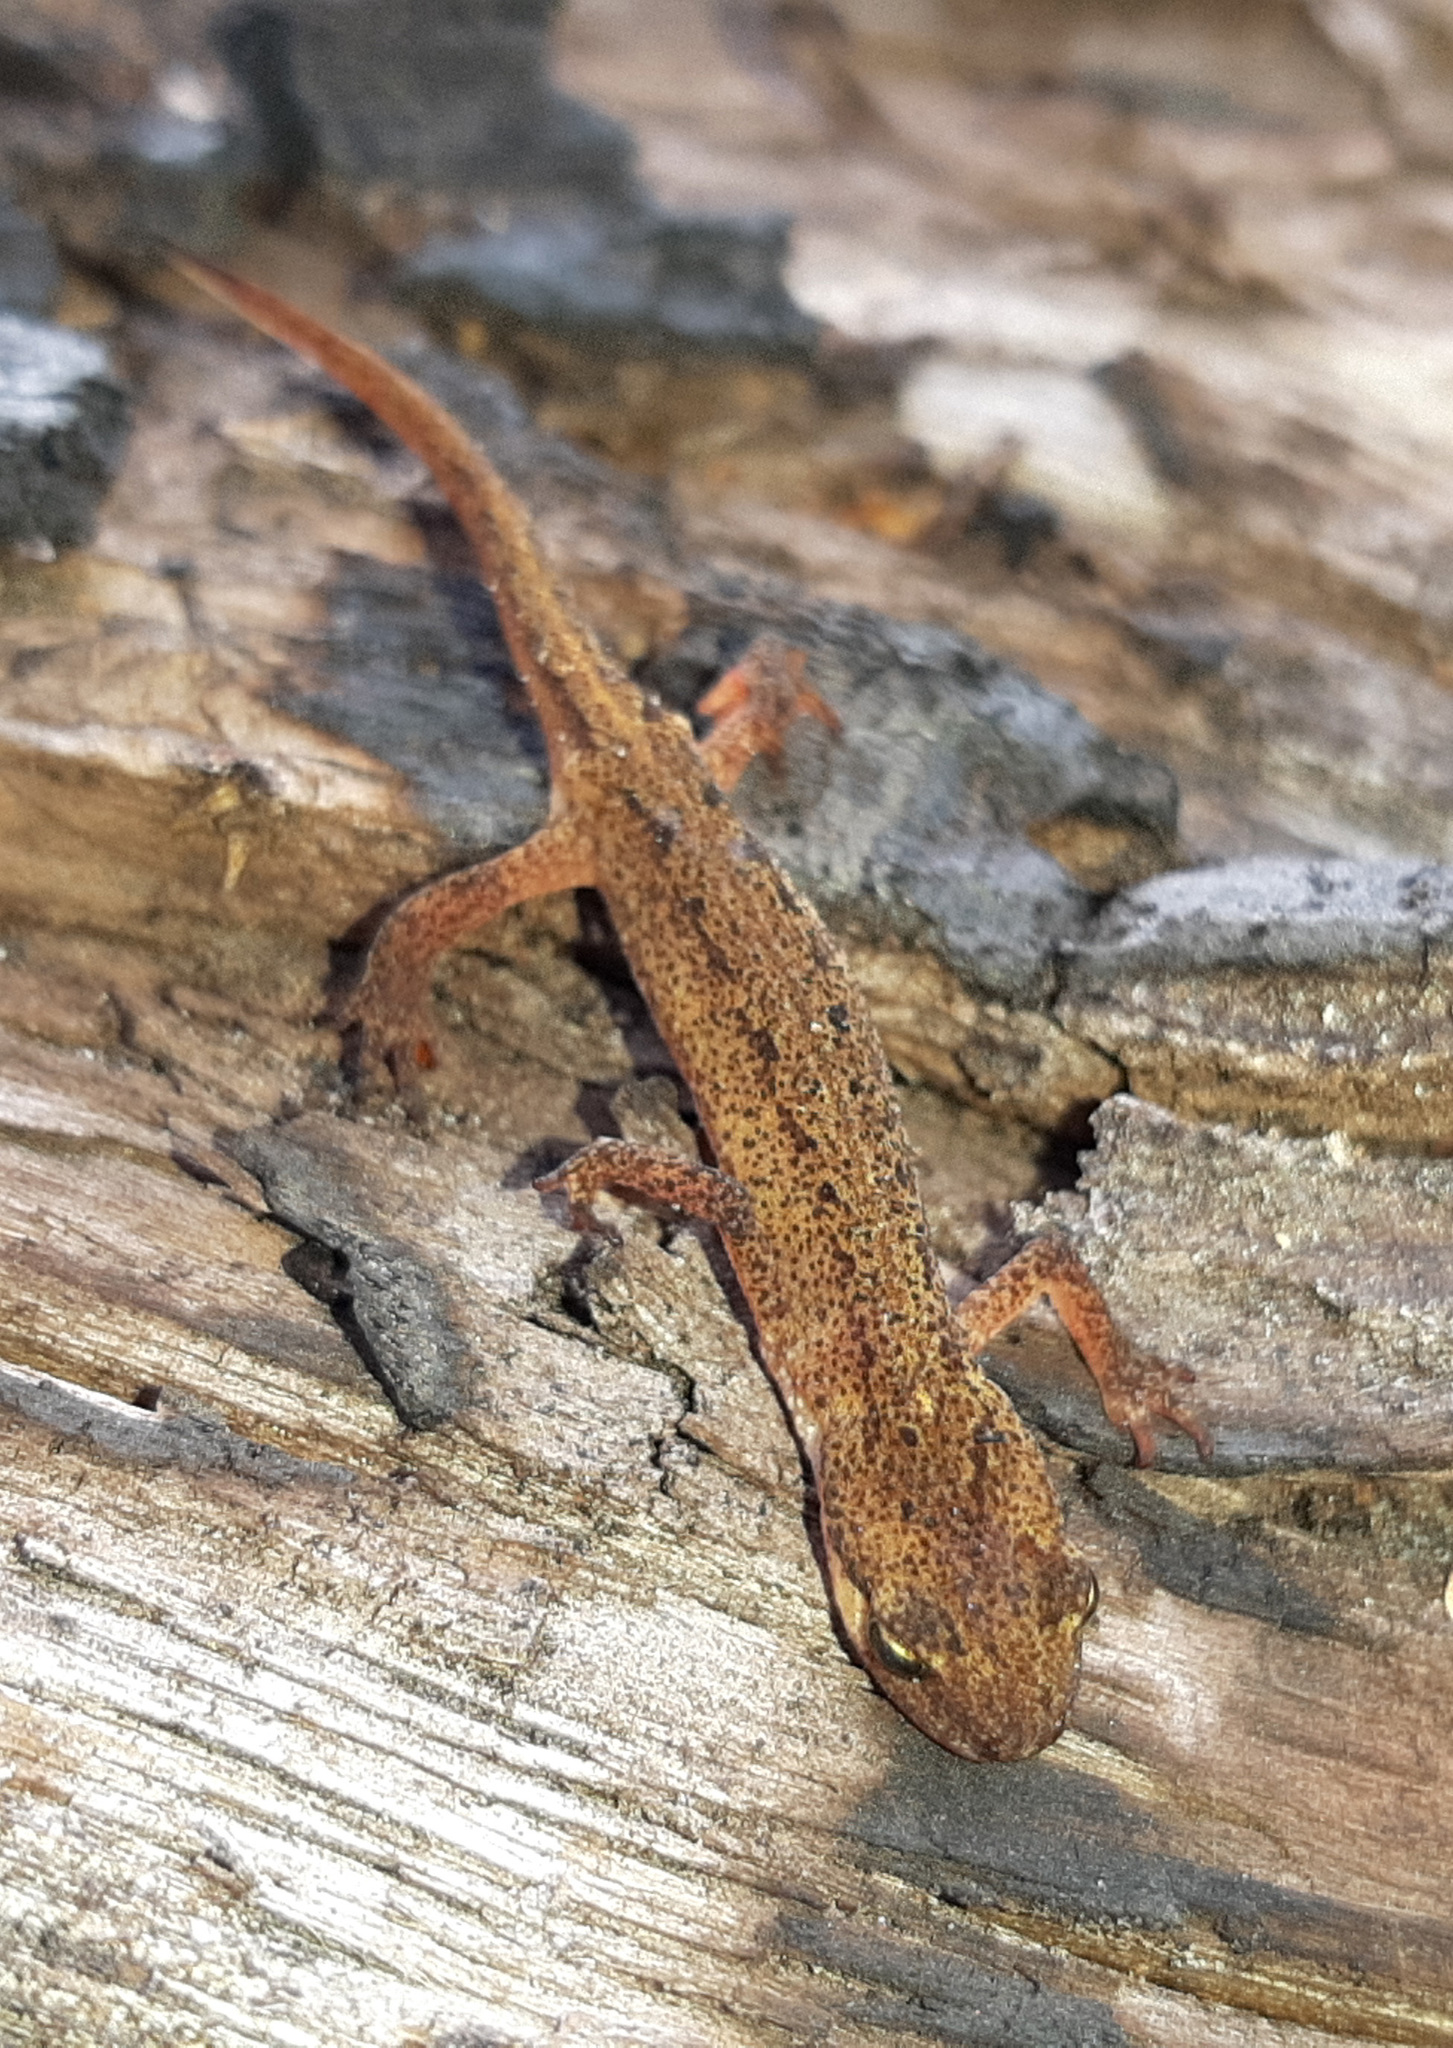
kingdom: Animalia
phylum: Chordata
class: Amphibia
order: Caudata
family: Salamandridae
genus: Lissotriton
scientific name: Lissotriton vulgaris
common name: Smooth newt
